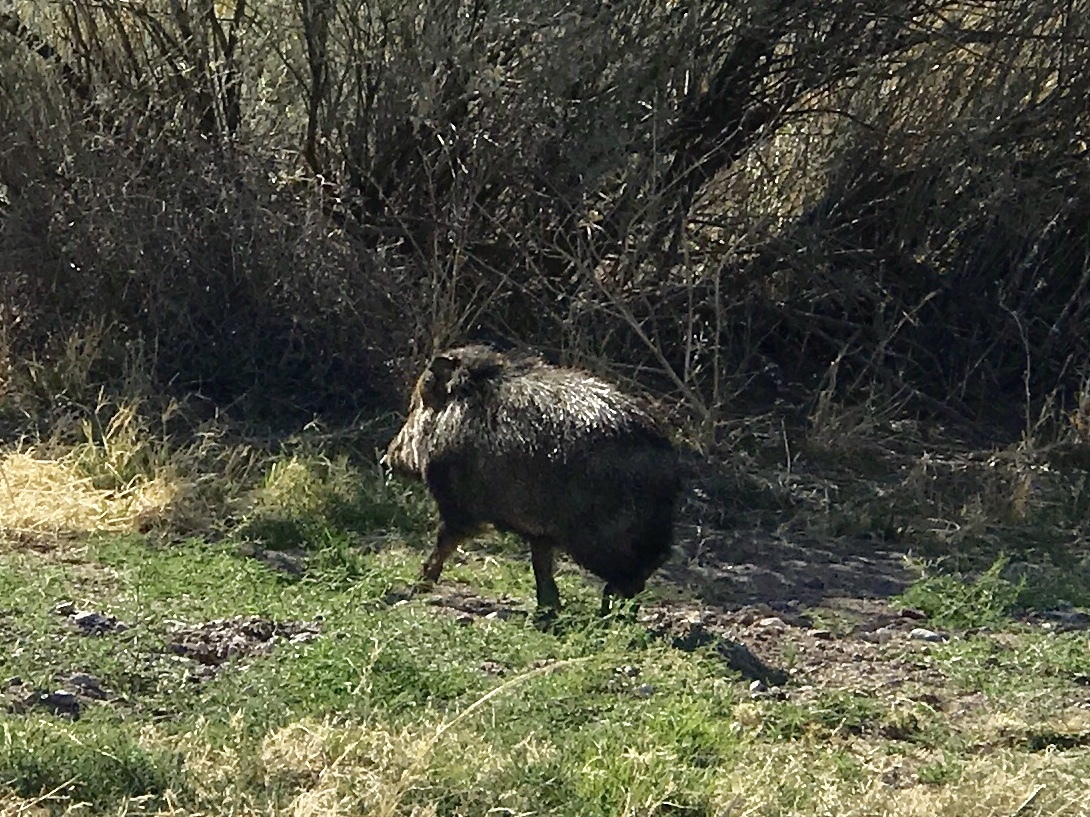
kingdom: Animalia
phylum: Chordata
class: Mammalia
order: Artiodactyla
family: Tayassuidae
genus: Pecari
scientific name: Pecari tajacu
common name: Collared peccary
